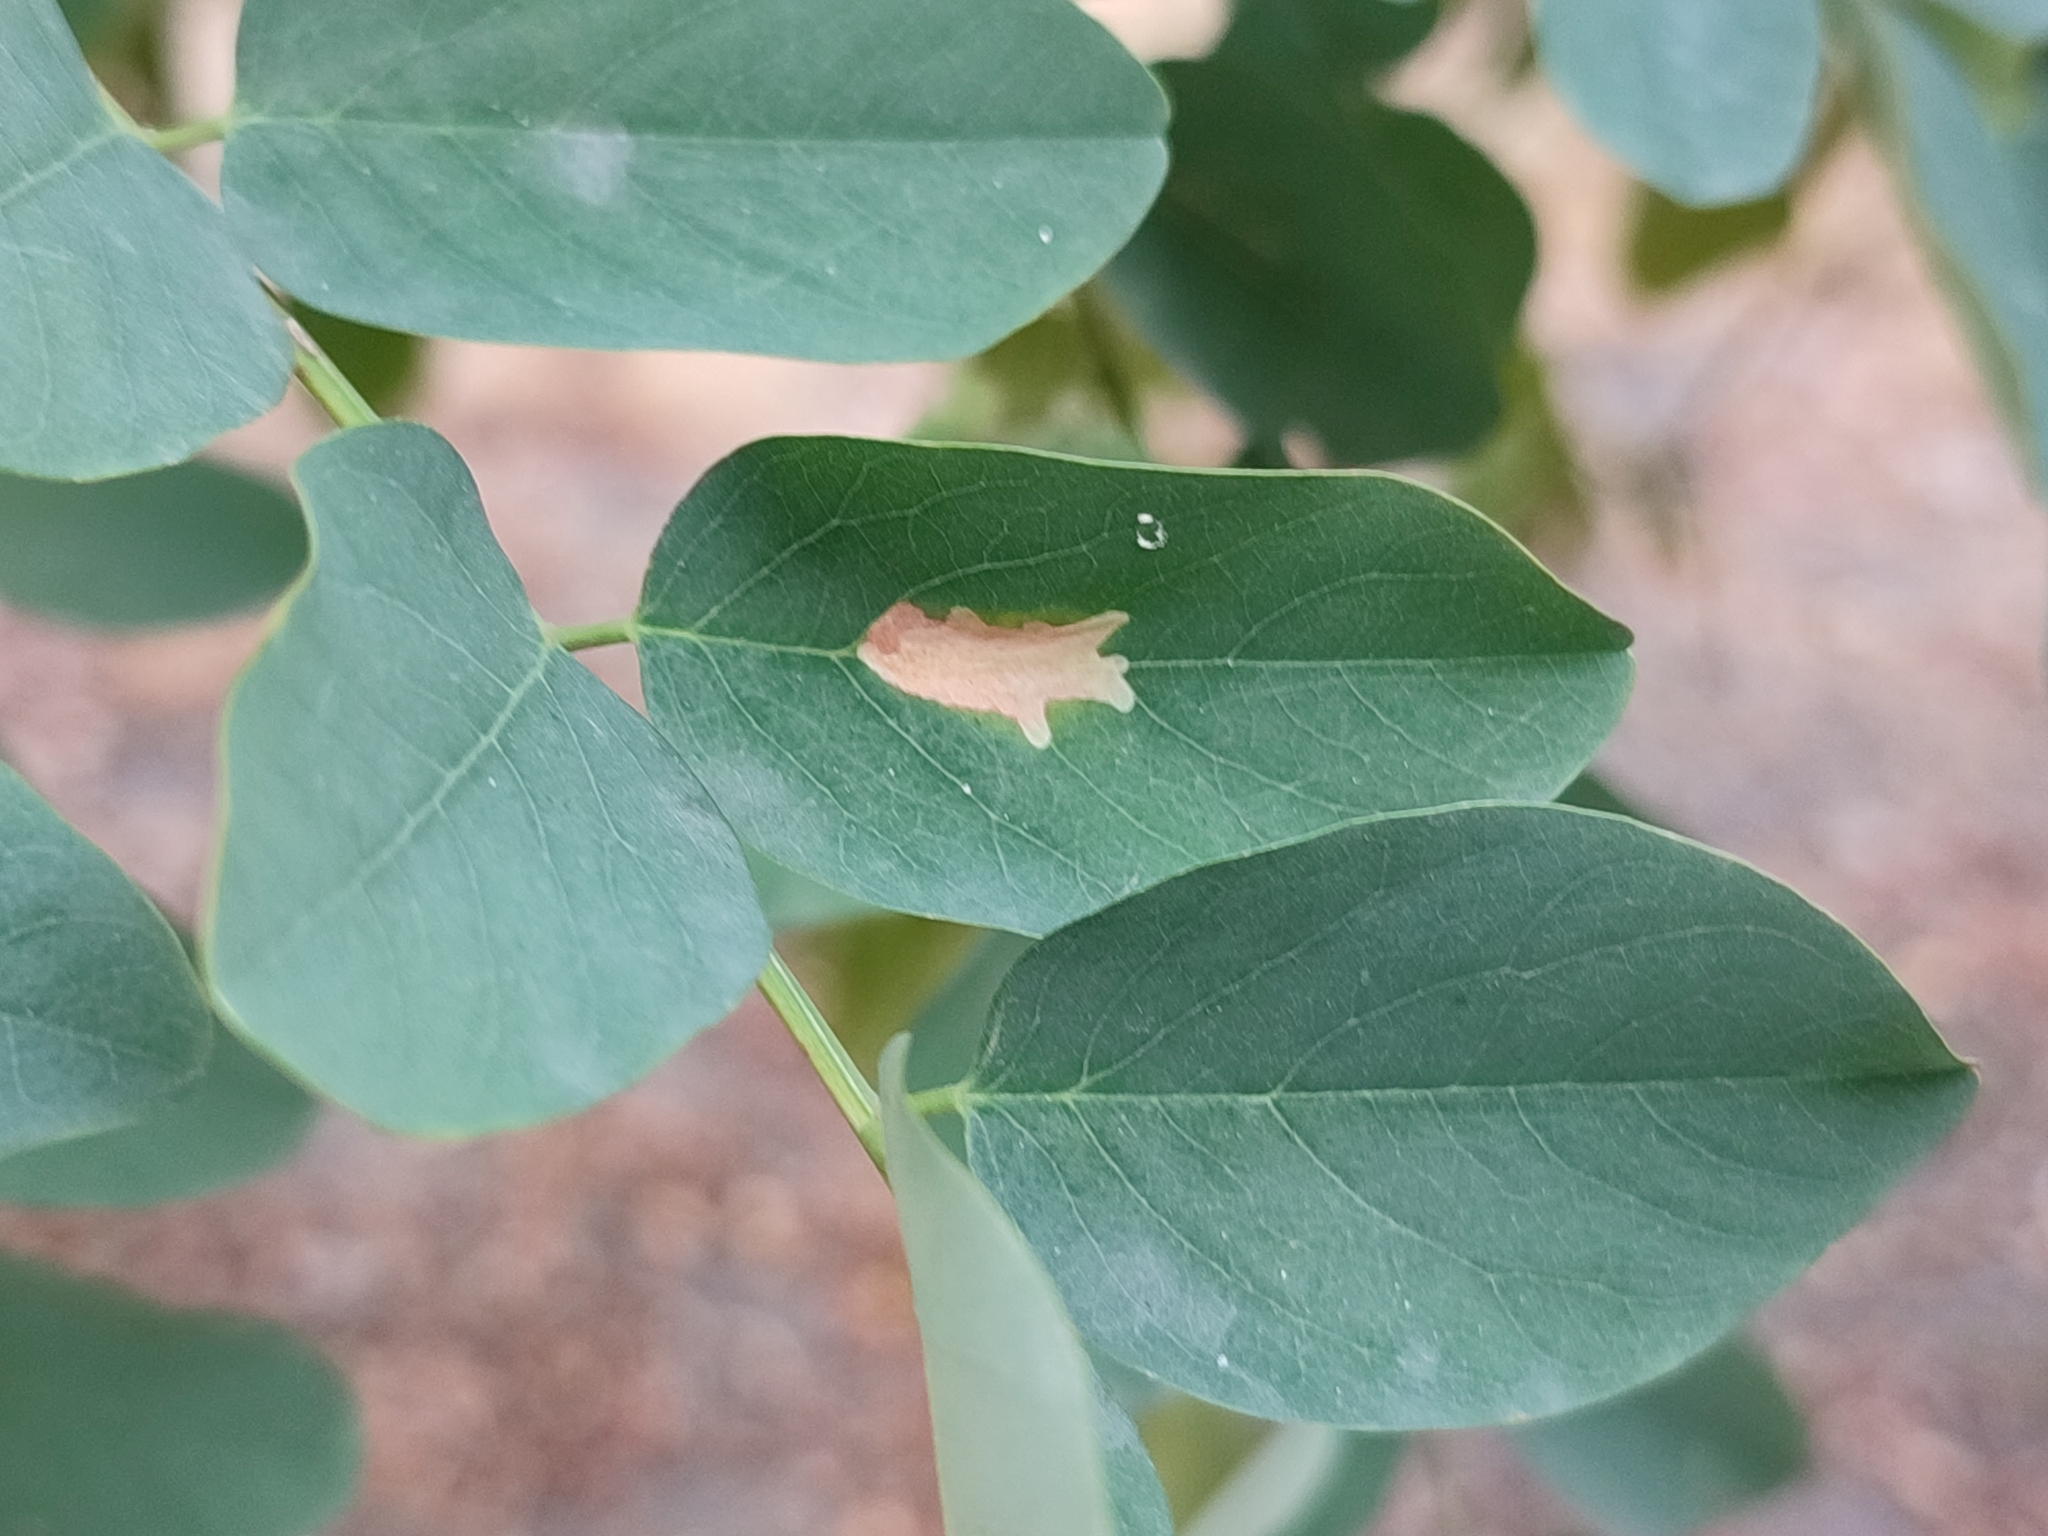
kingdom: Animalia
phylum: Arthropoda
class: Insecta
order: Lepidoptera
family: Gracillariidae
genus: Parectopa
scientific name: Parectopa robiniella
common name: Locust digitate leafminer
